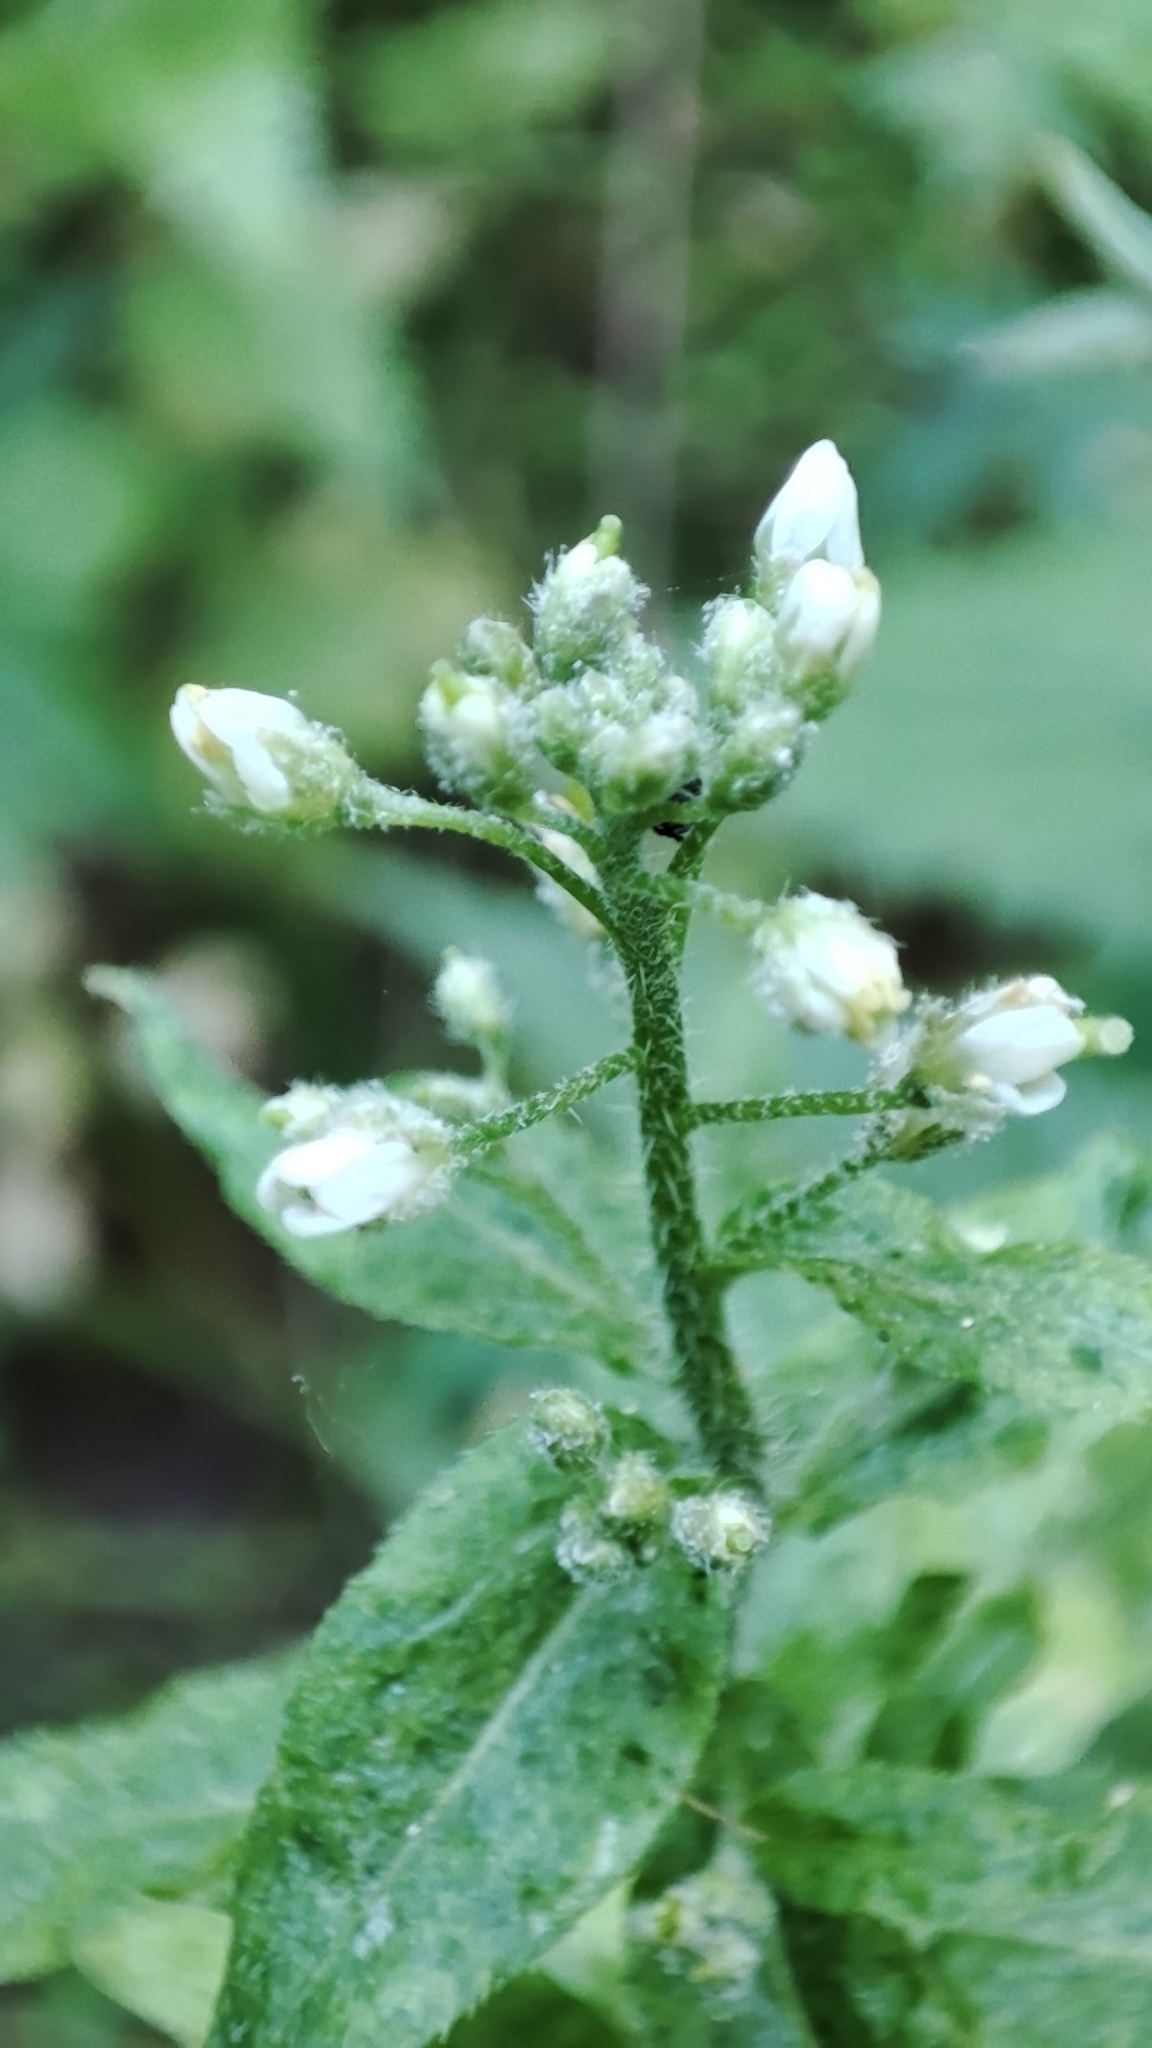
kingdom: Plantae
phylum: Tracheophyta
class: Magnoliopsida
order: Brassicales
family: Brassicaceae
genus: Catolobus
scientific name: Catolobus pendulus
